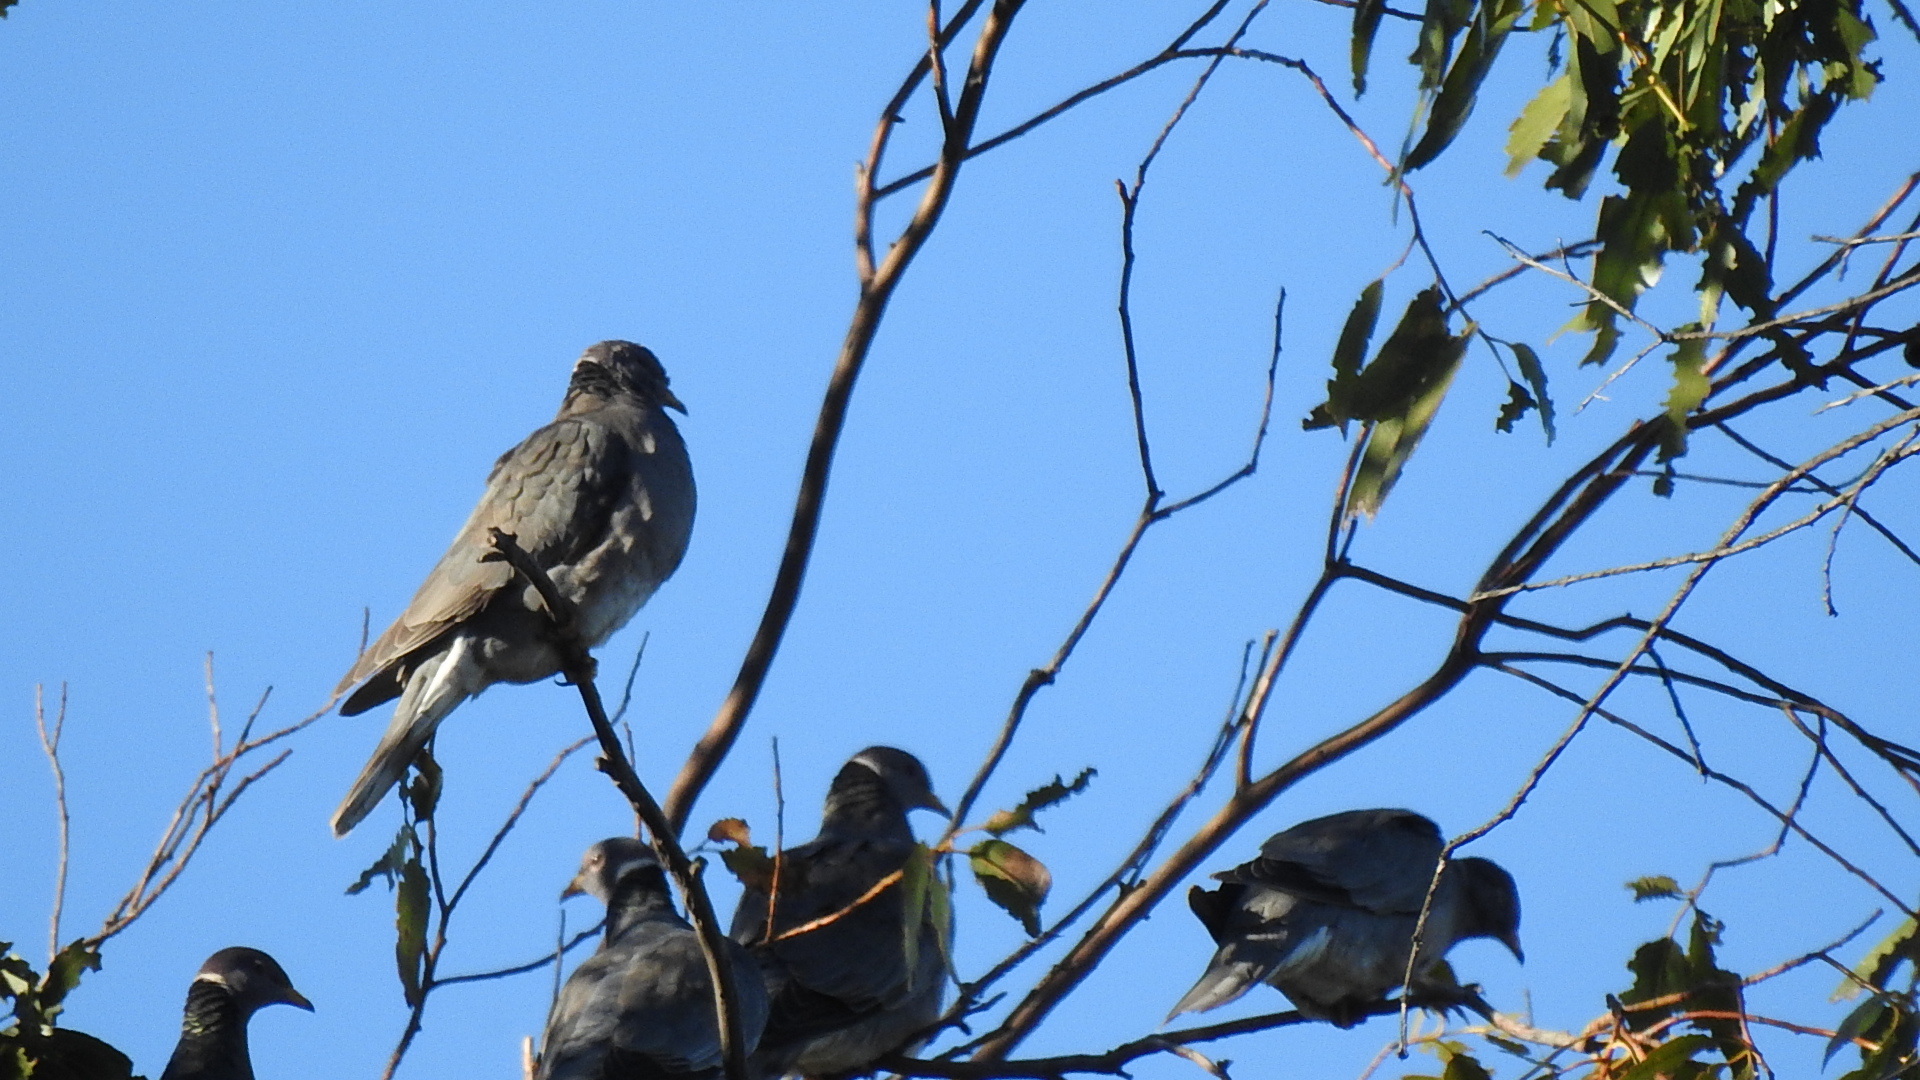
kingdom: Animalia
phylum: Chordata
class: Aves
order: Columbiformes
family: Columbidae
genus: Patagioenas
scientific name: Patagioenas fasciata
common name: Band-tailed pigeon
